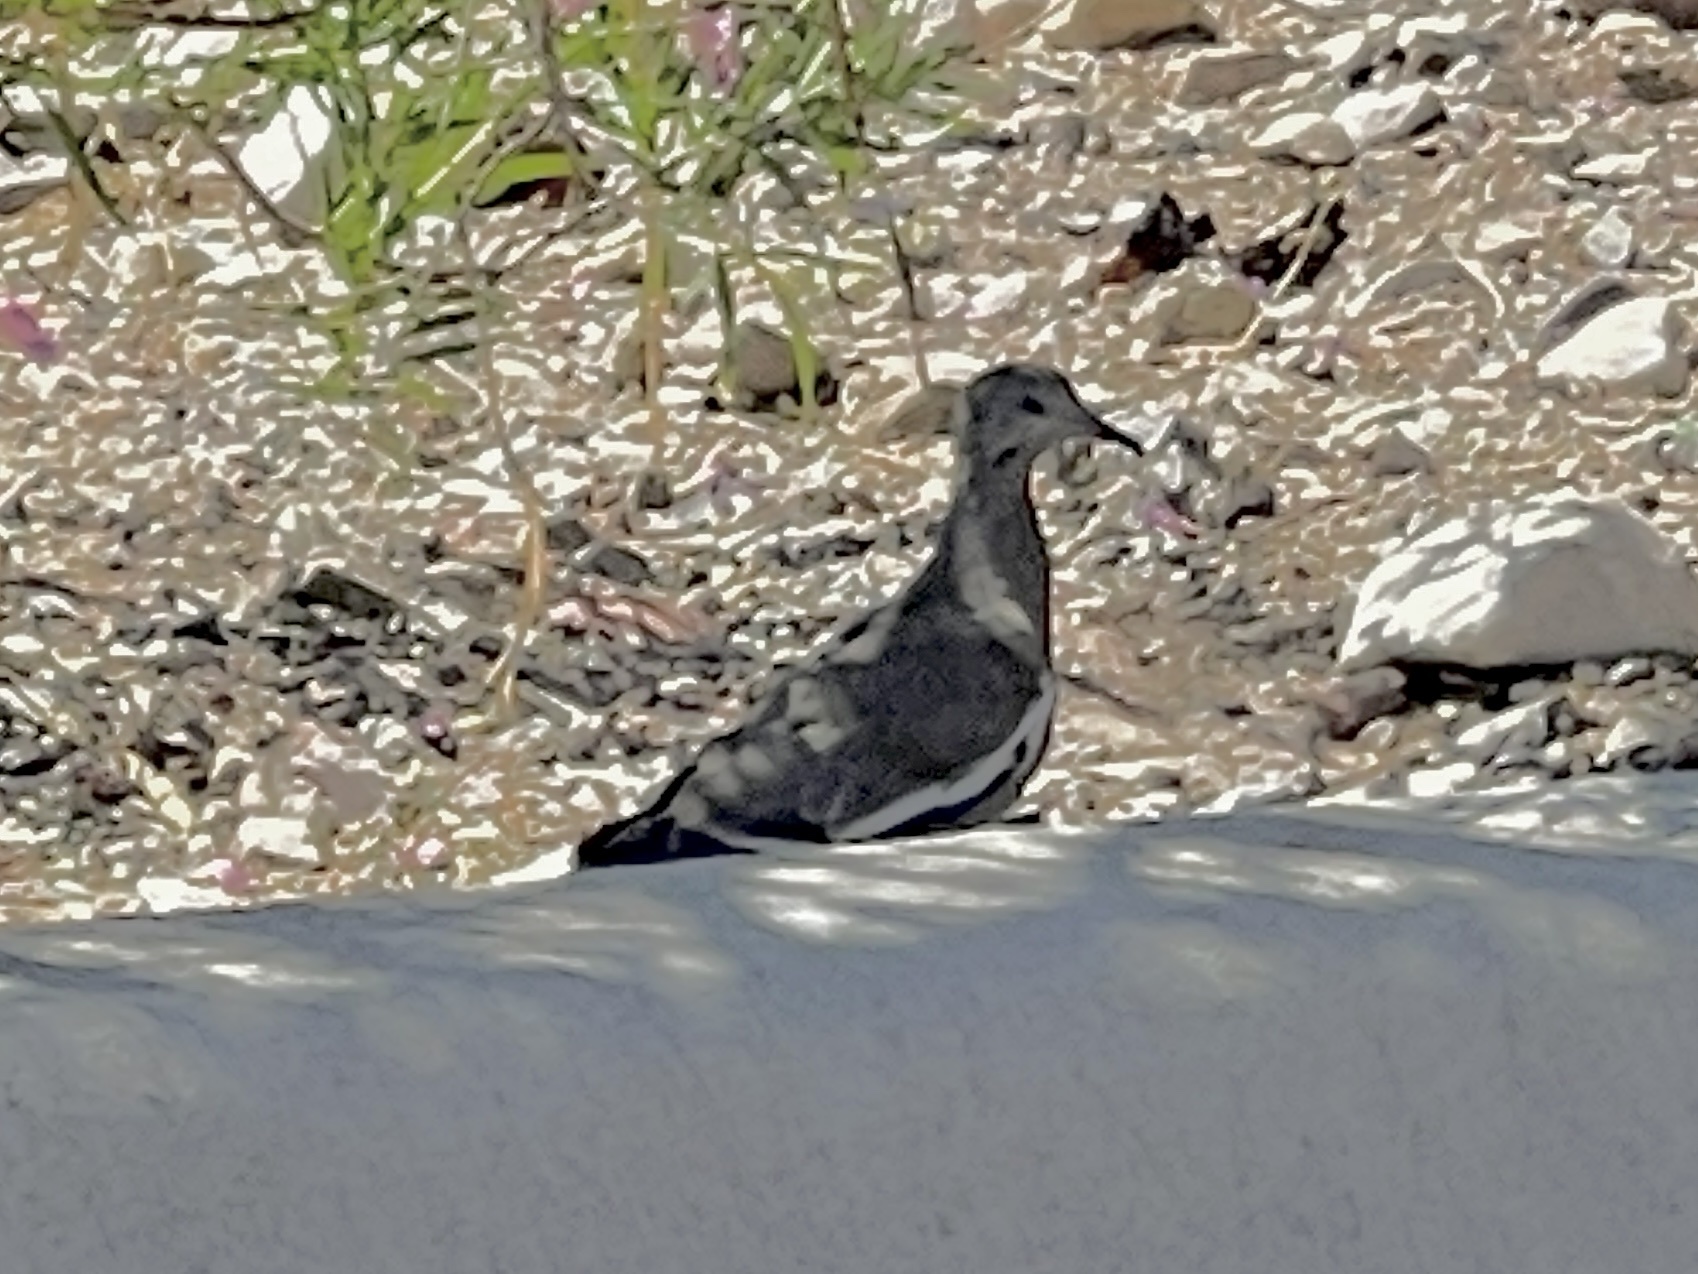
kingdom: Animalia
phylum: Chordata
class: Aves
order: Columbiformes
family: Columbidae
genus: Zenaida
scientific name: Zenaida asiatica
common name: White-winged dove
